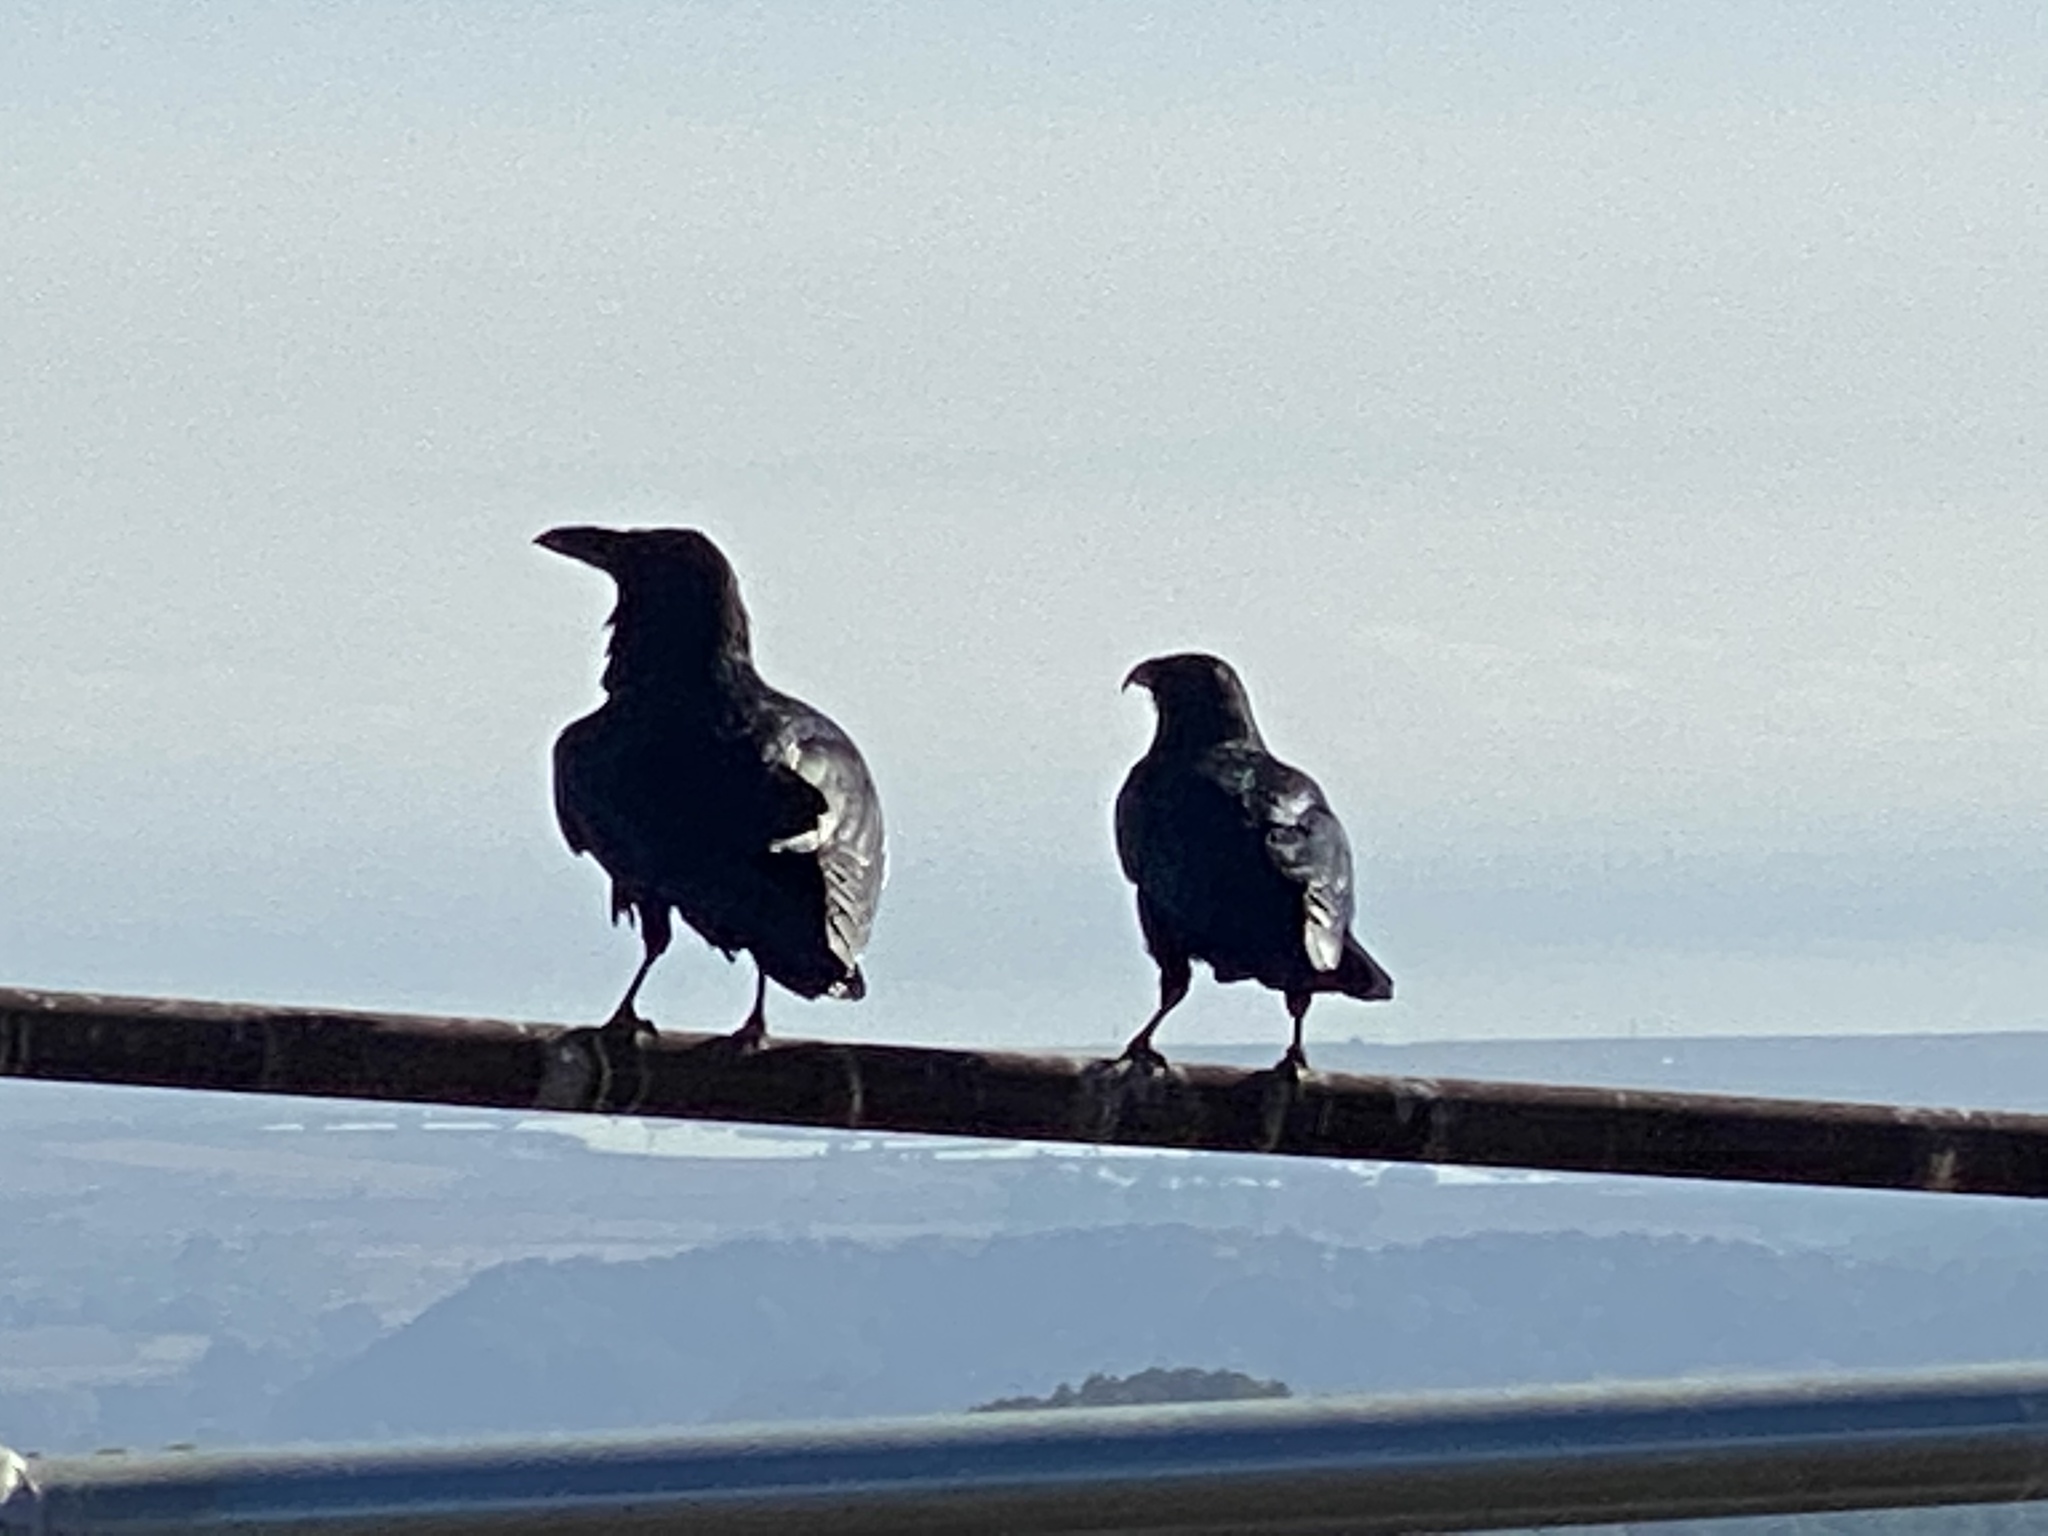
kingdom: Animalia
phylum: Chordata
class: Aves
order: Passeriformes
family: Corvidae
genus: Corvus
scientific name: Corvus corax
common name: Common raven
